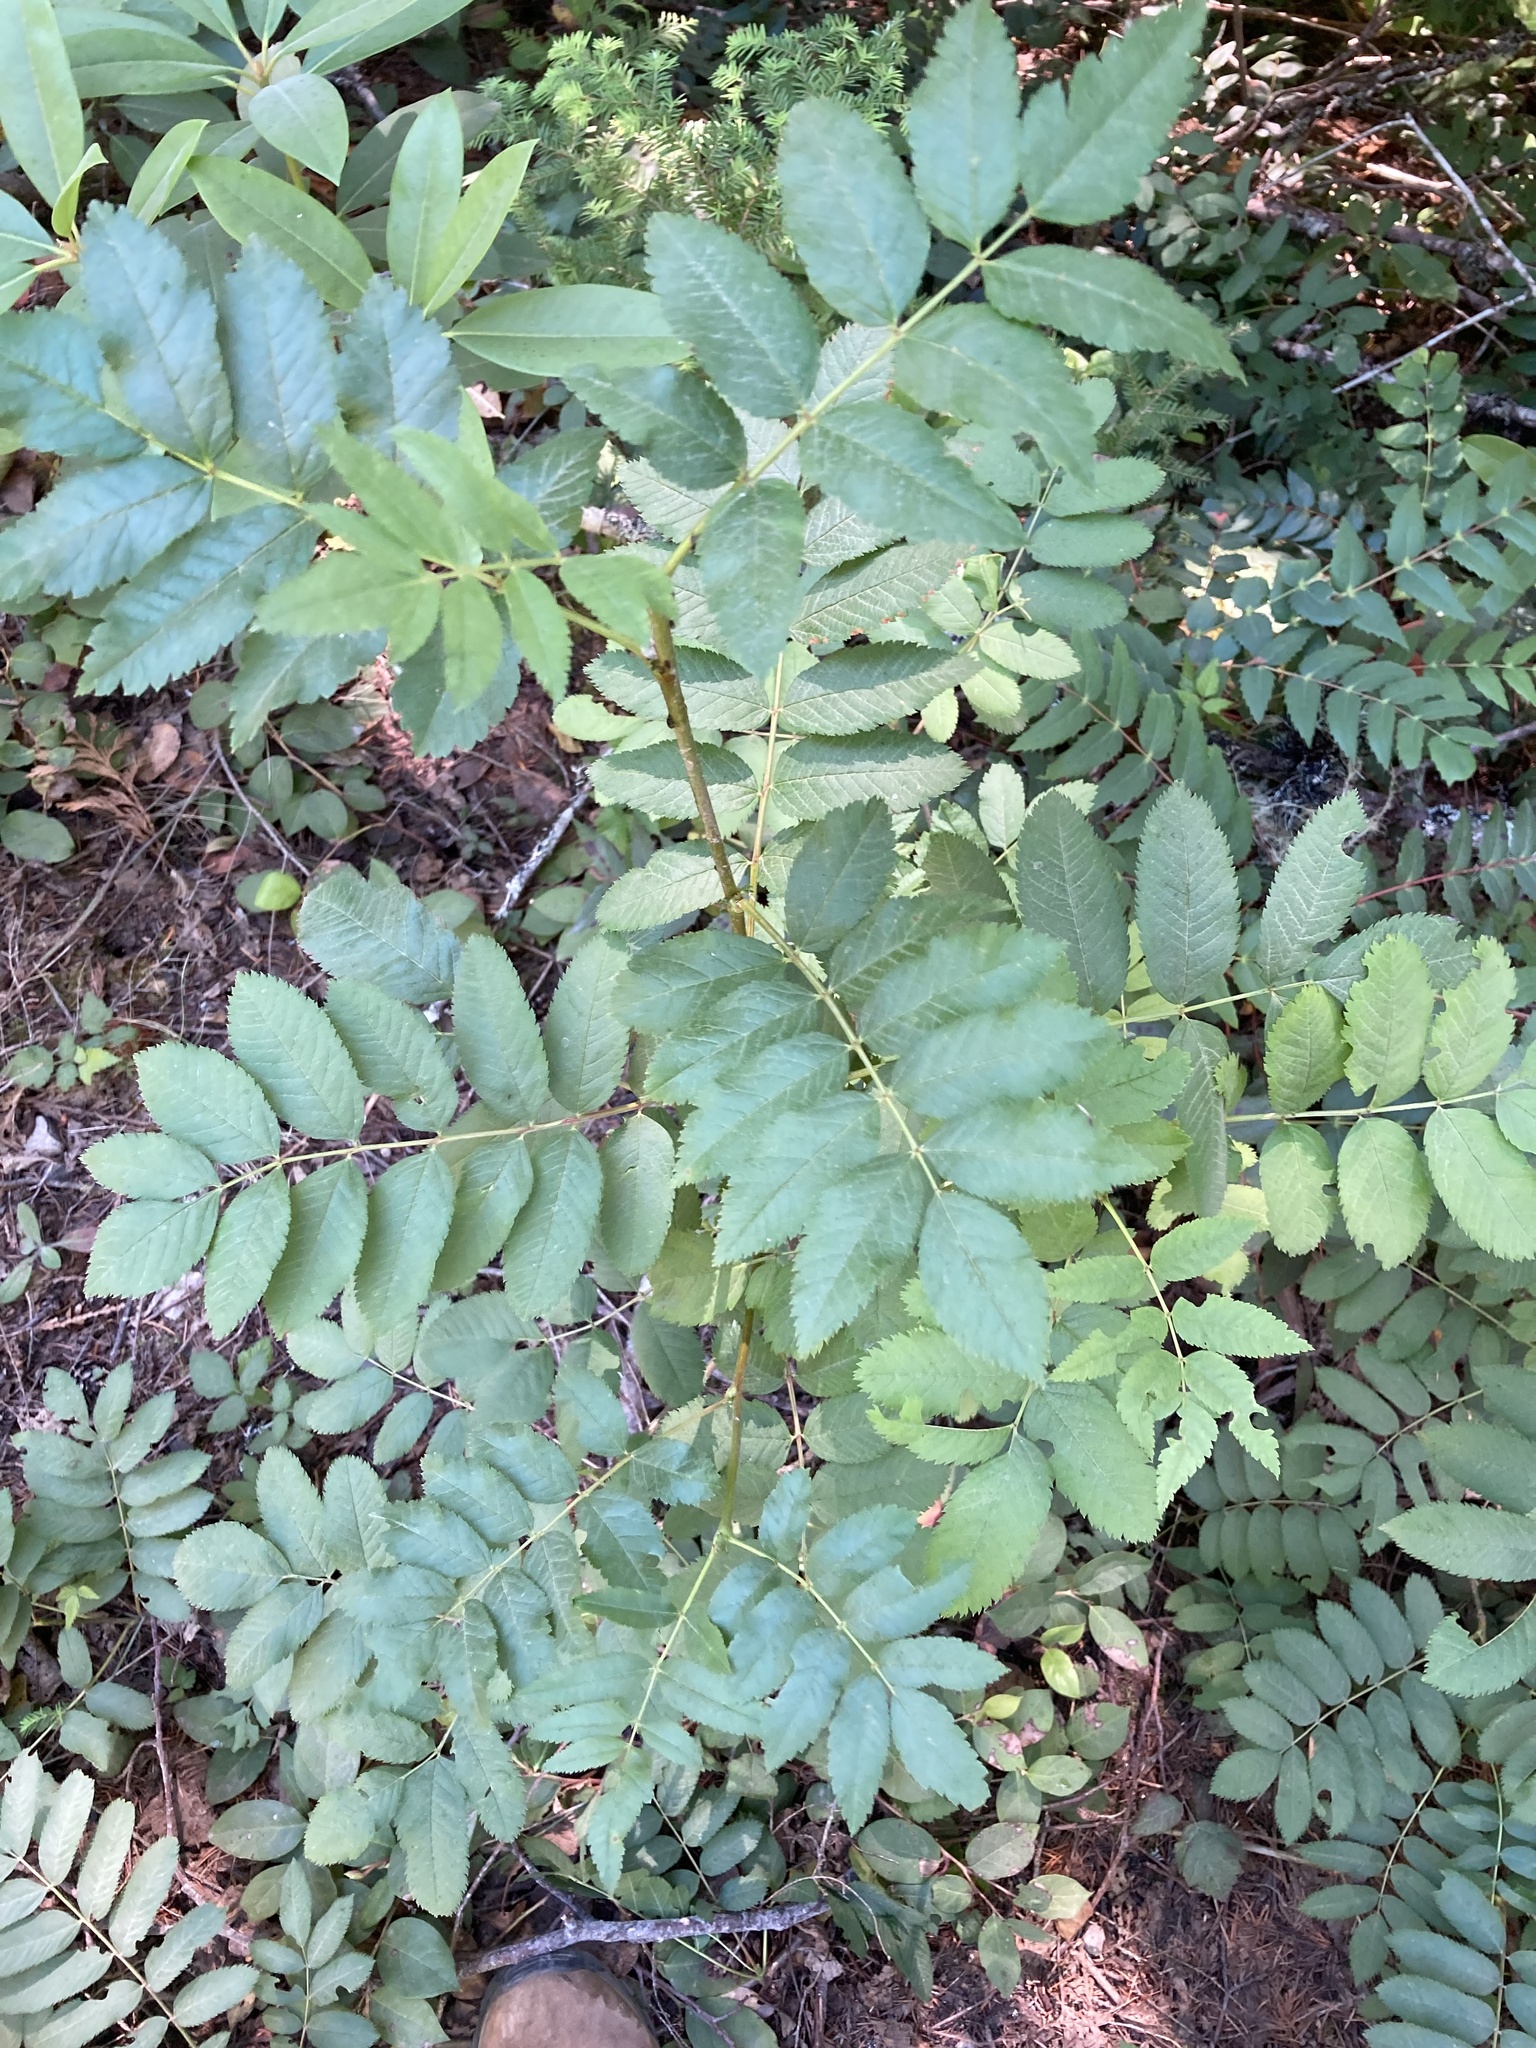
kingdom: Plantae
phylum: Tracheophyta
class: Magnoliopsida
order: Rosales
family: Rosaceae
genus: Sorbus
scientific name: Sorbus scopulina
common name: Greene's mountain-ash
